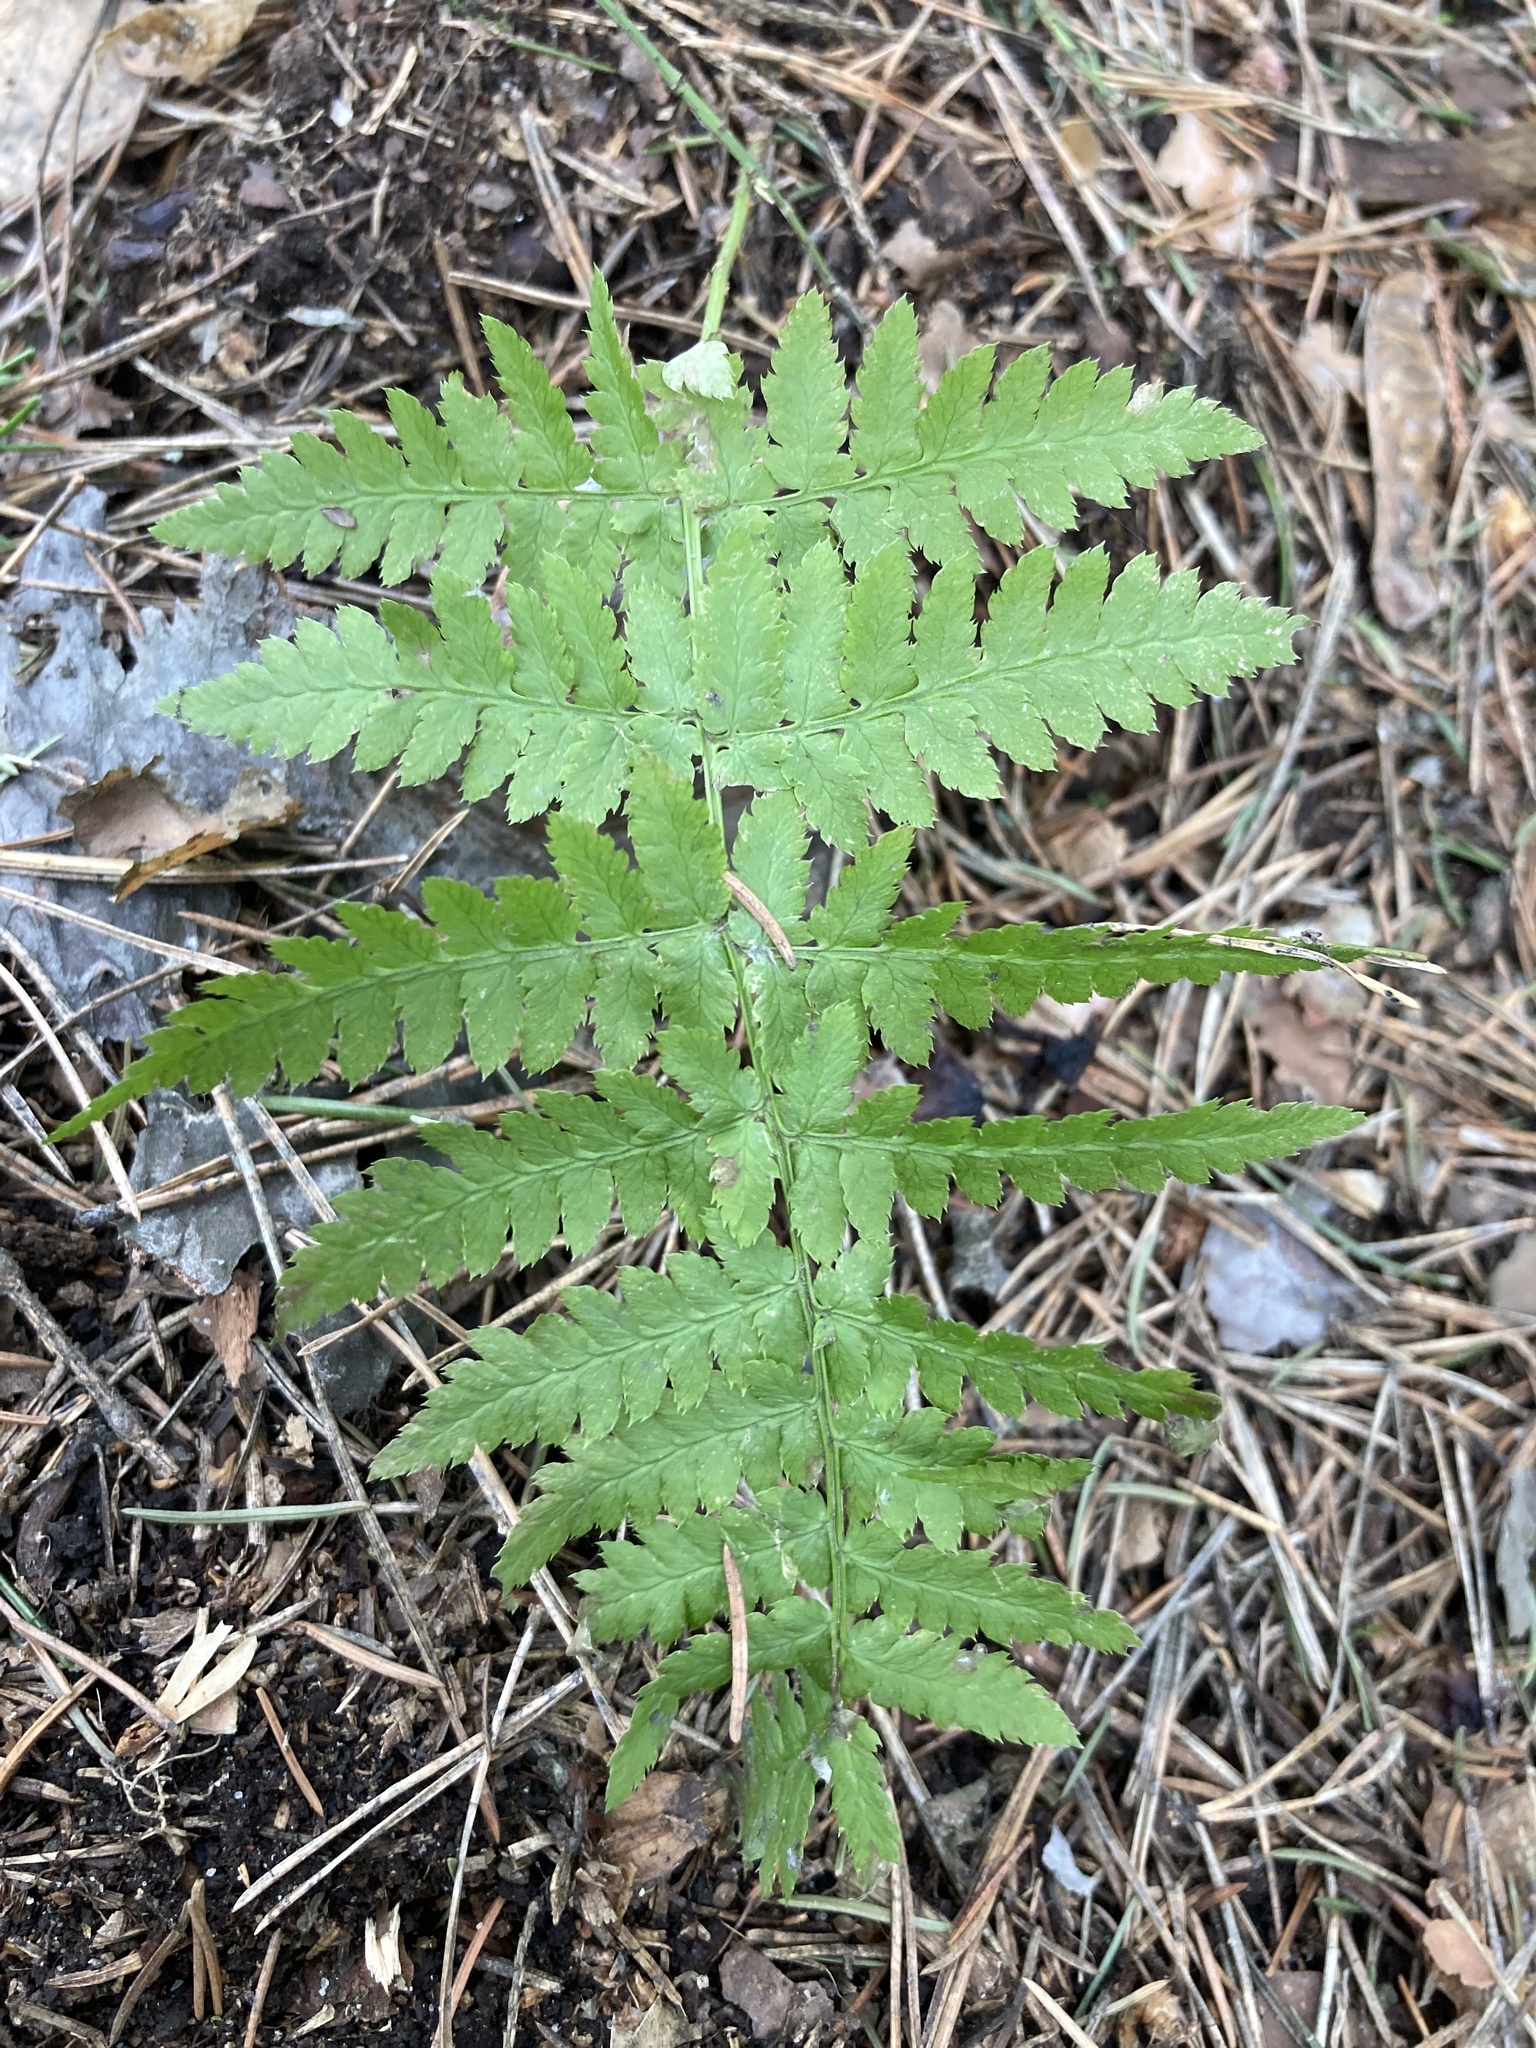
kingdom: Plantae
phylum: Tracheophyta
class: Polypodiopsida
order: Polypodiales
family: Dryopteridaceae
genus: Dryopteris
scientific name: Dryopteris carthusiana
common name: Narrow buckler-fern
